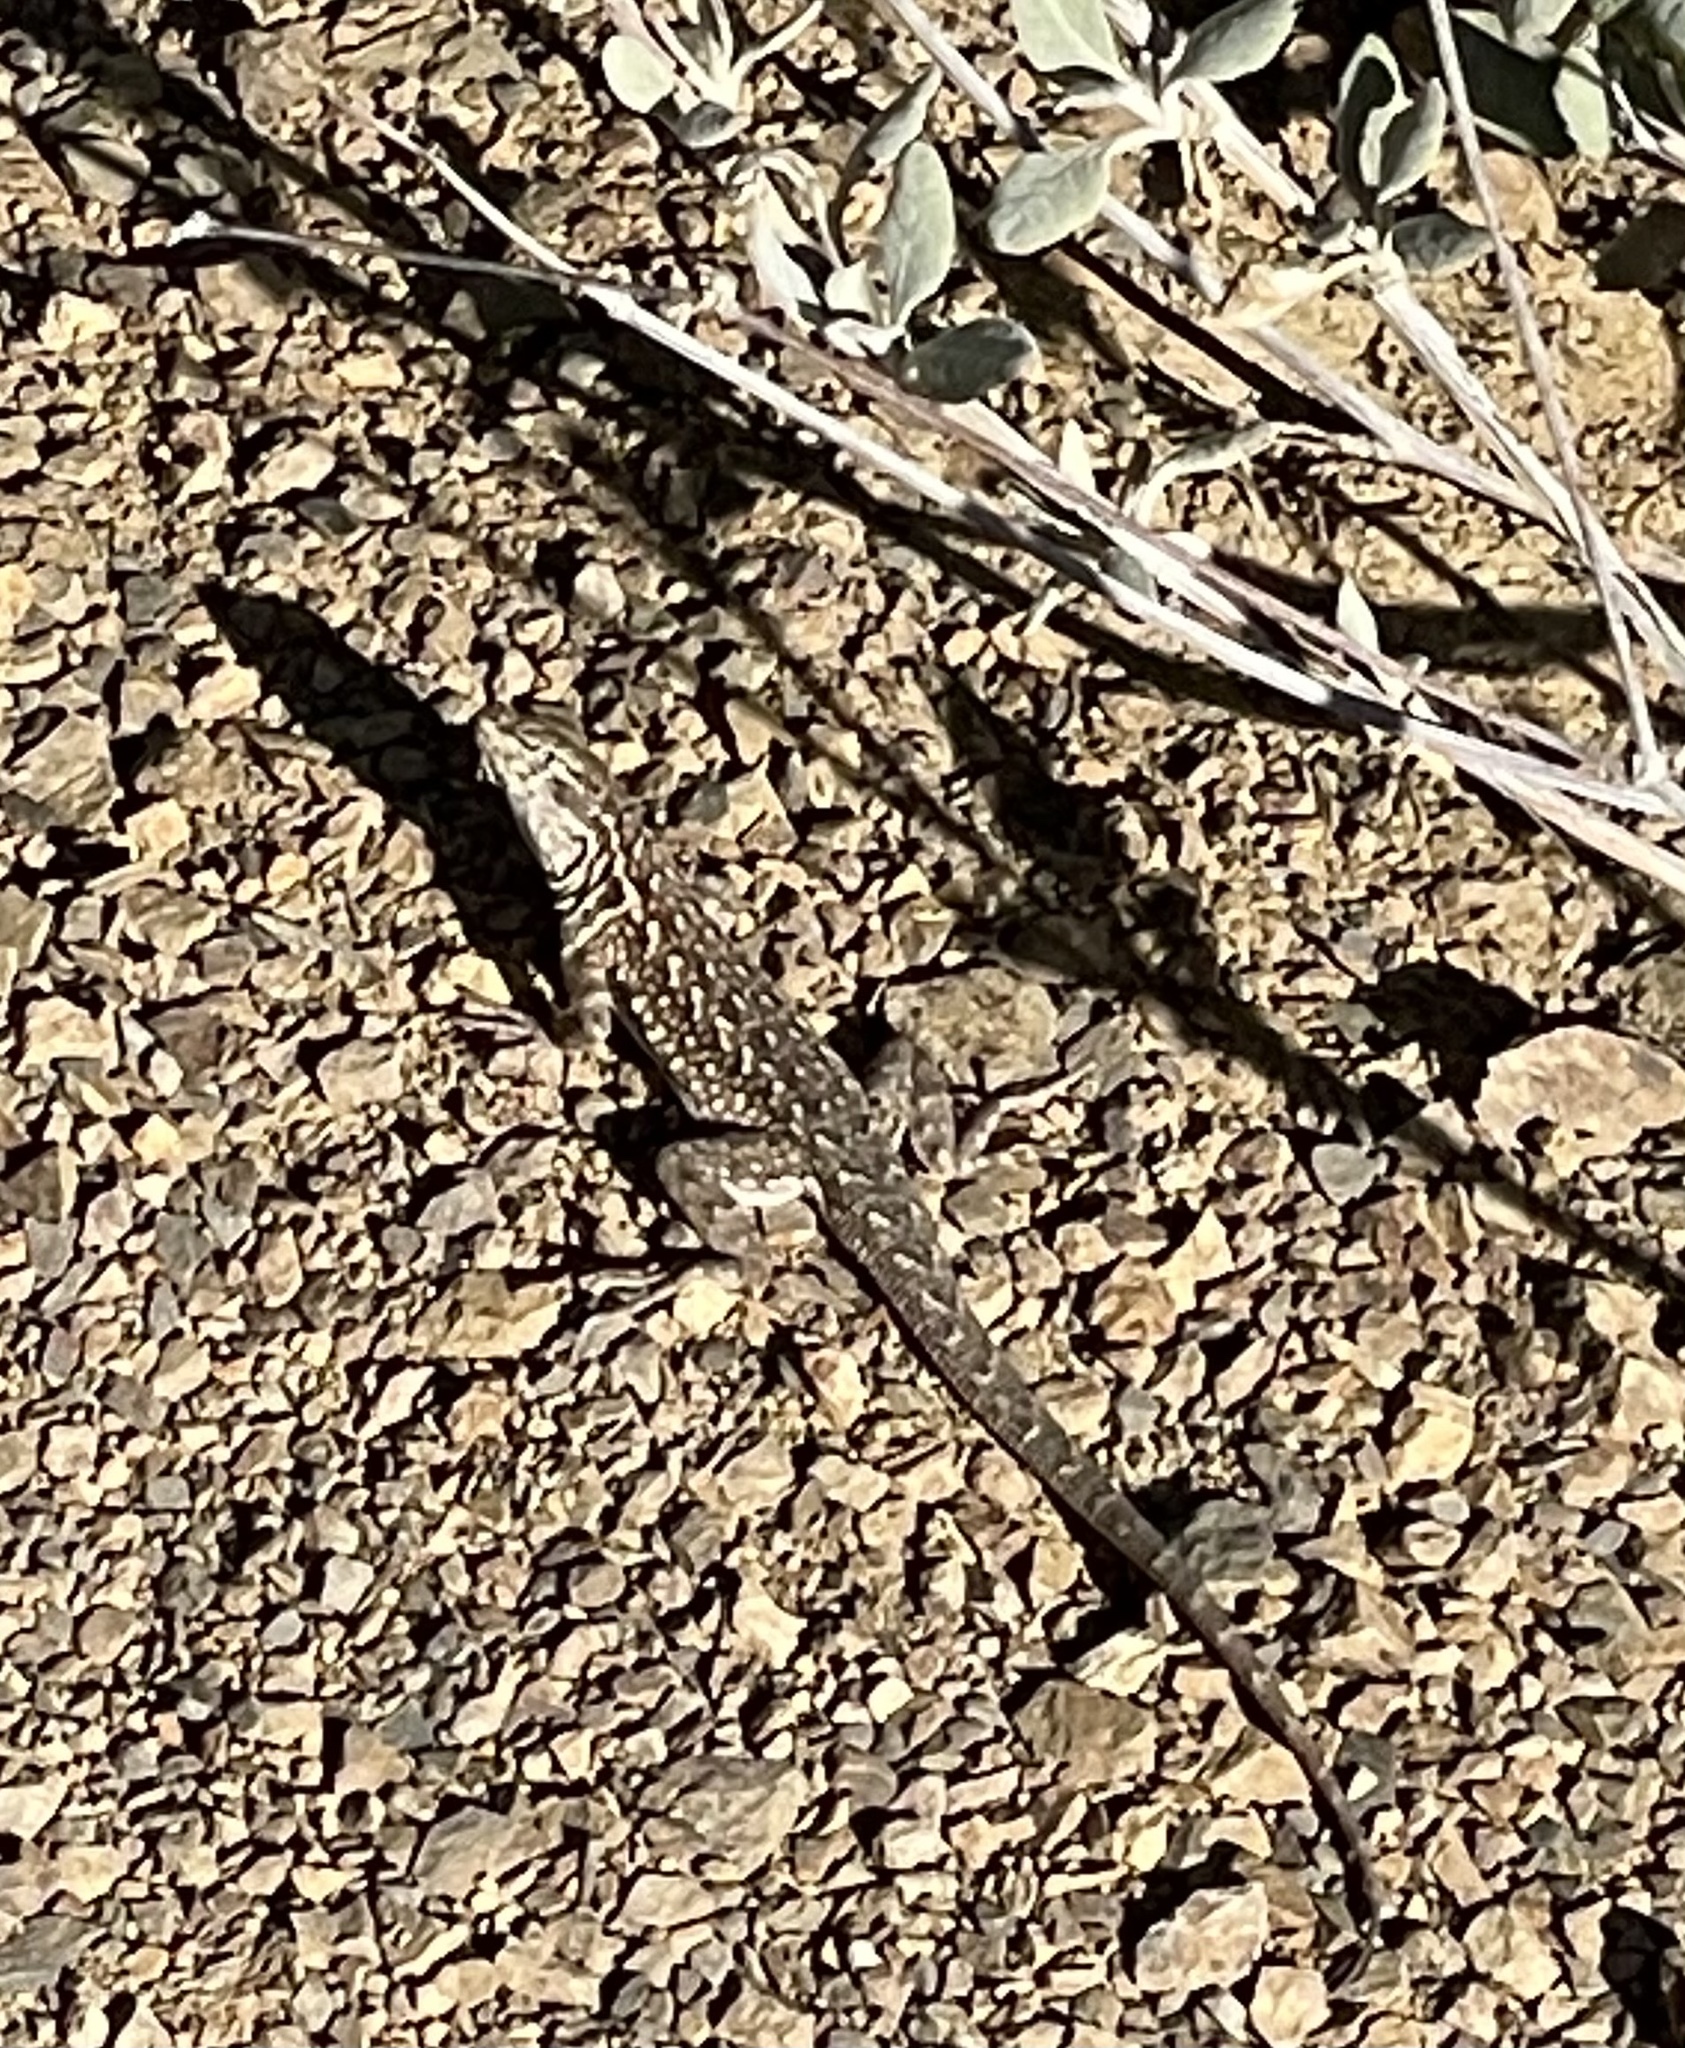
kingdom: Animalia
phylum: Chordata
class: Squamata
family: Phrynosomatidae
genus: Uta
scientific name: Uta stansburiana
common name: Side-blotched lizard
